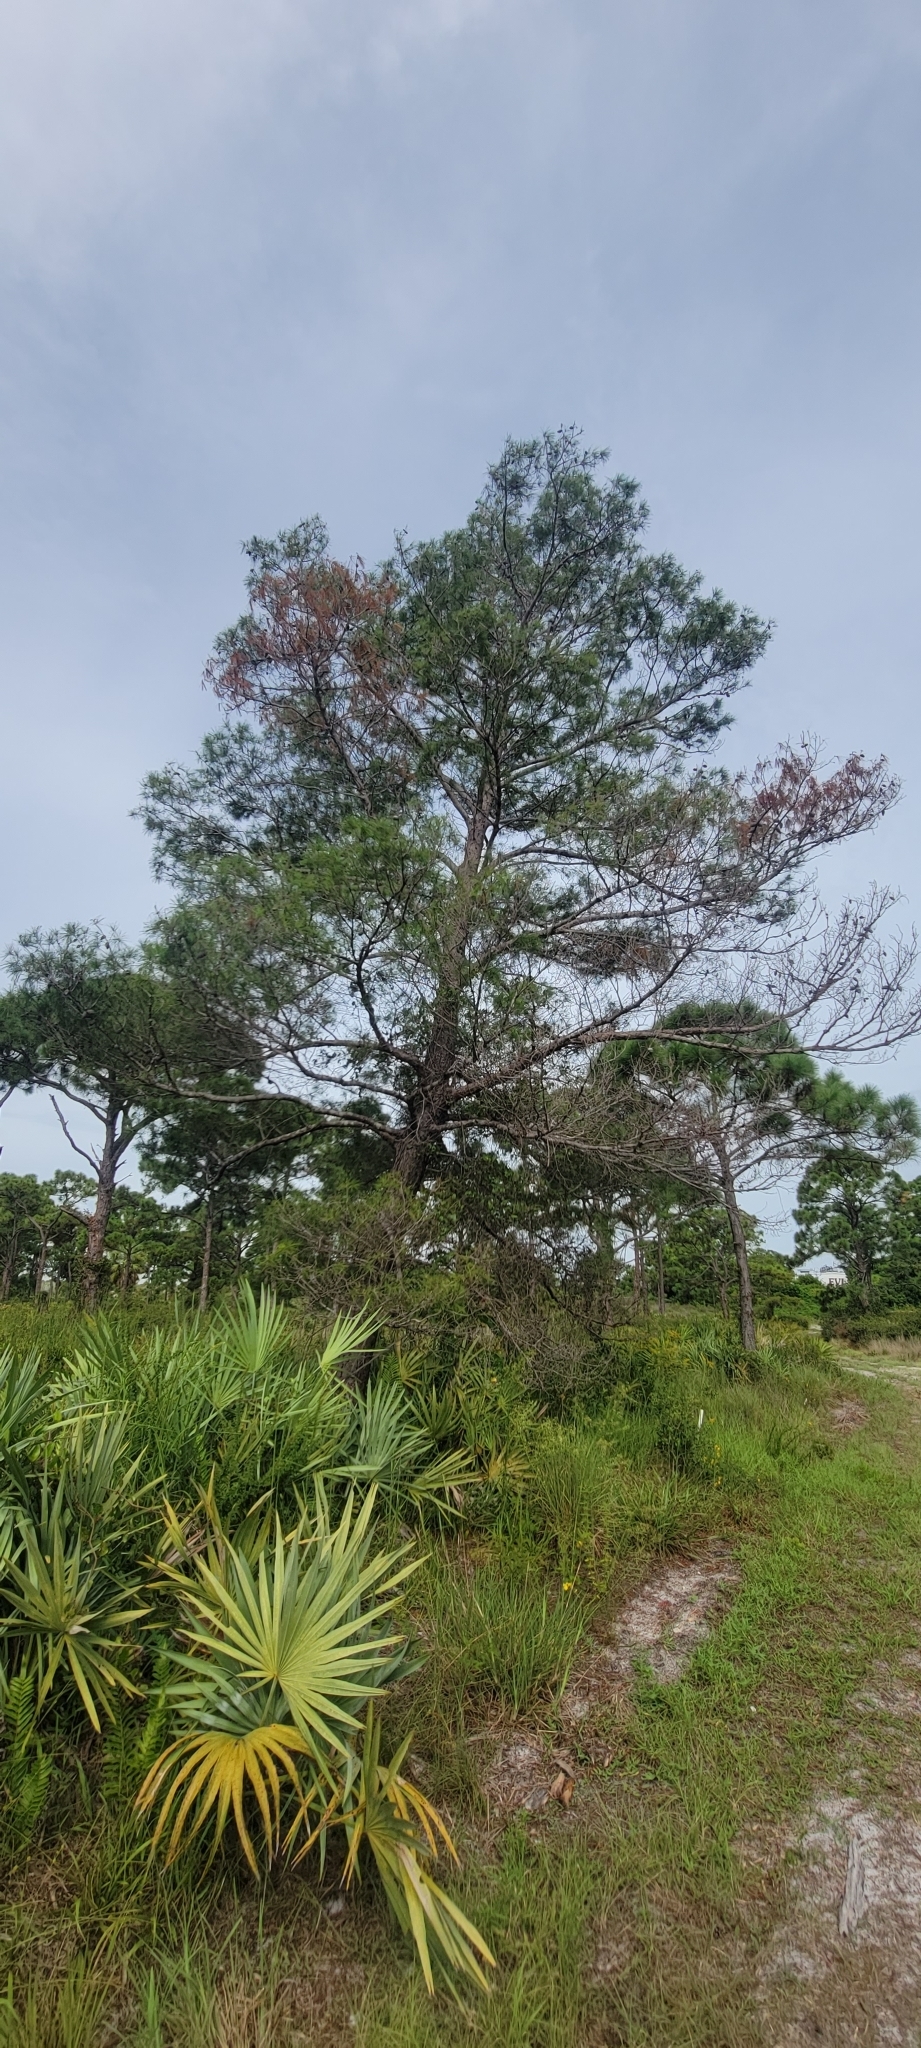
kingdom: Plantae
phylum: Tracheophyta
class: Pinopsida
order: Pinales
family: Pinaceae
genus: Pinus
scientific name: Pinus clausa
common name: Sand pine
